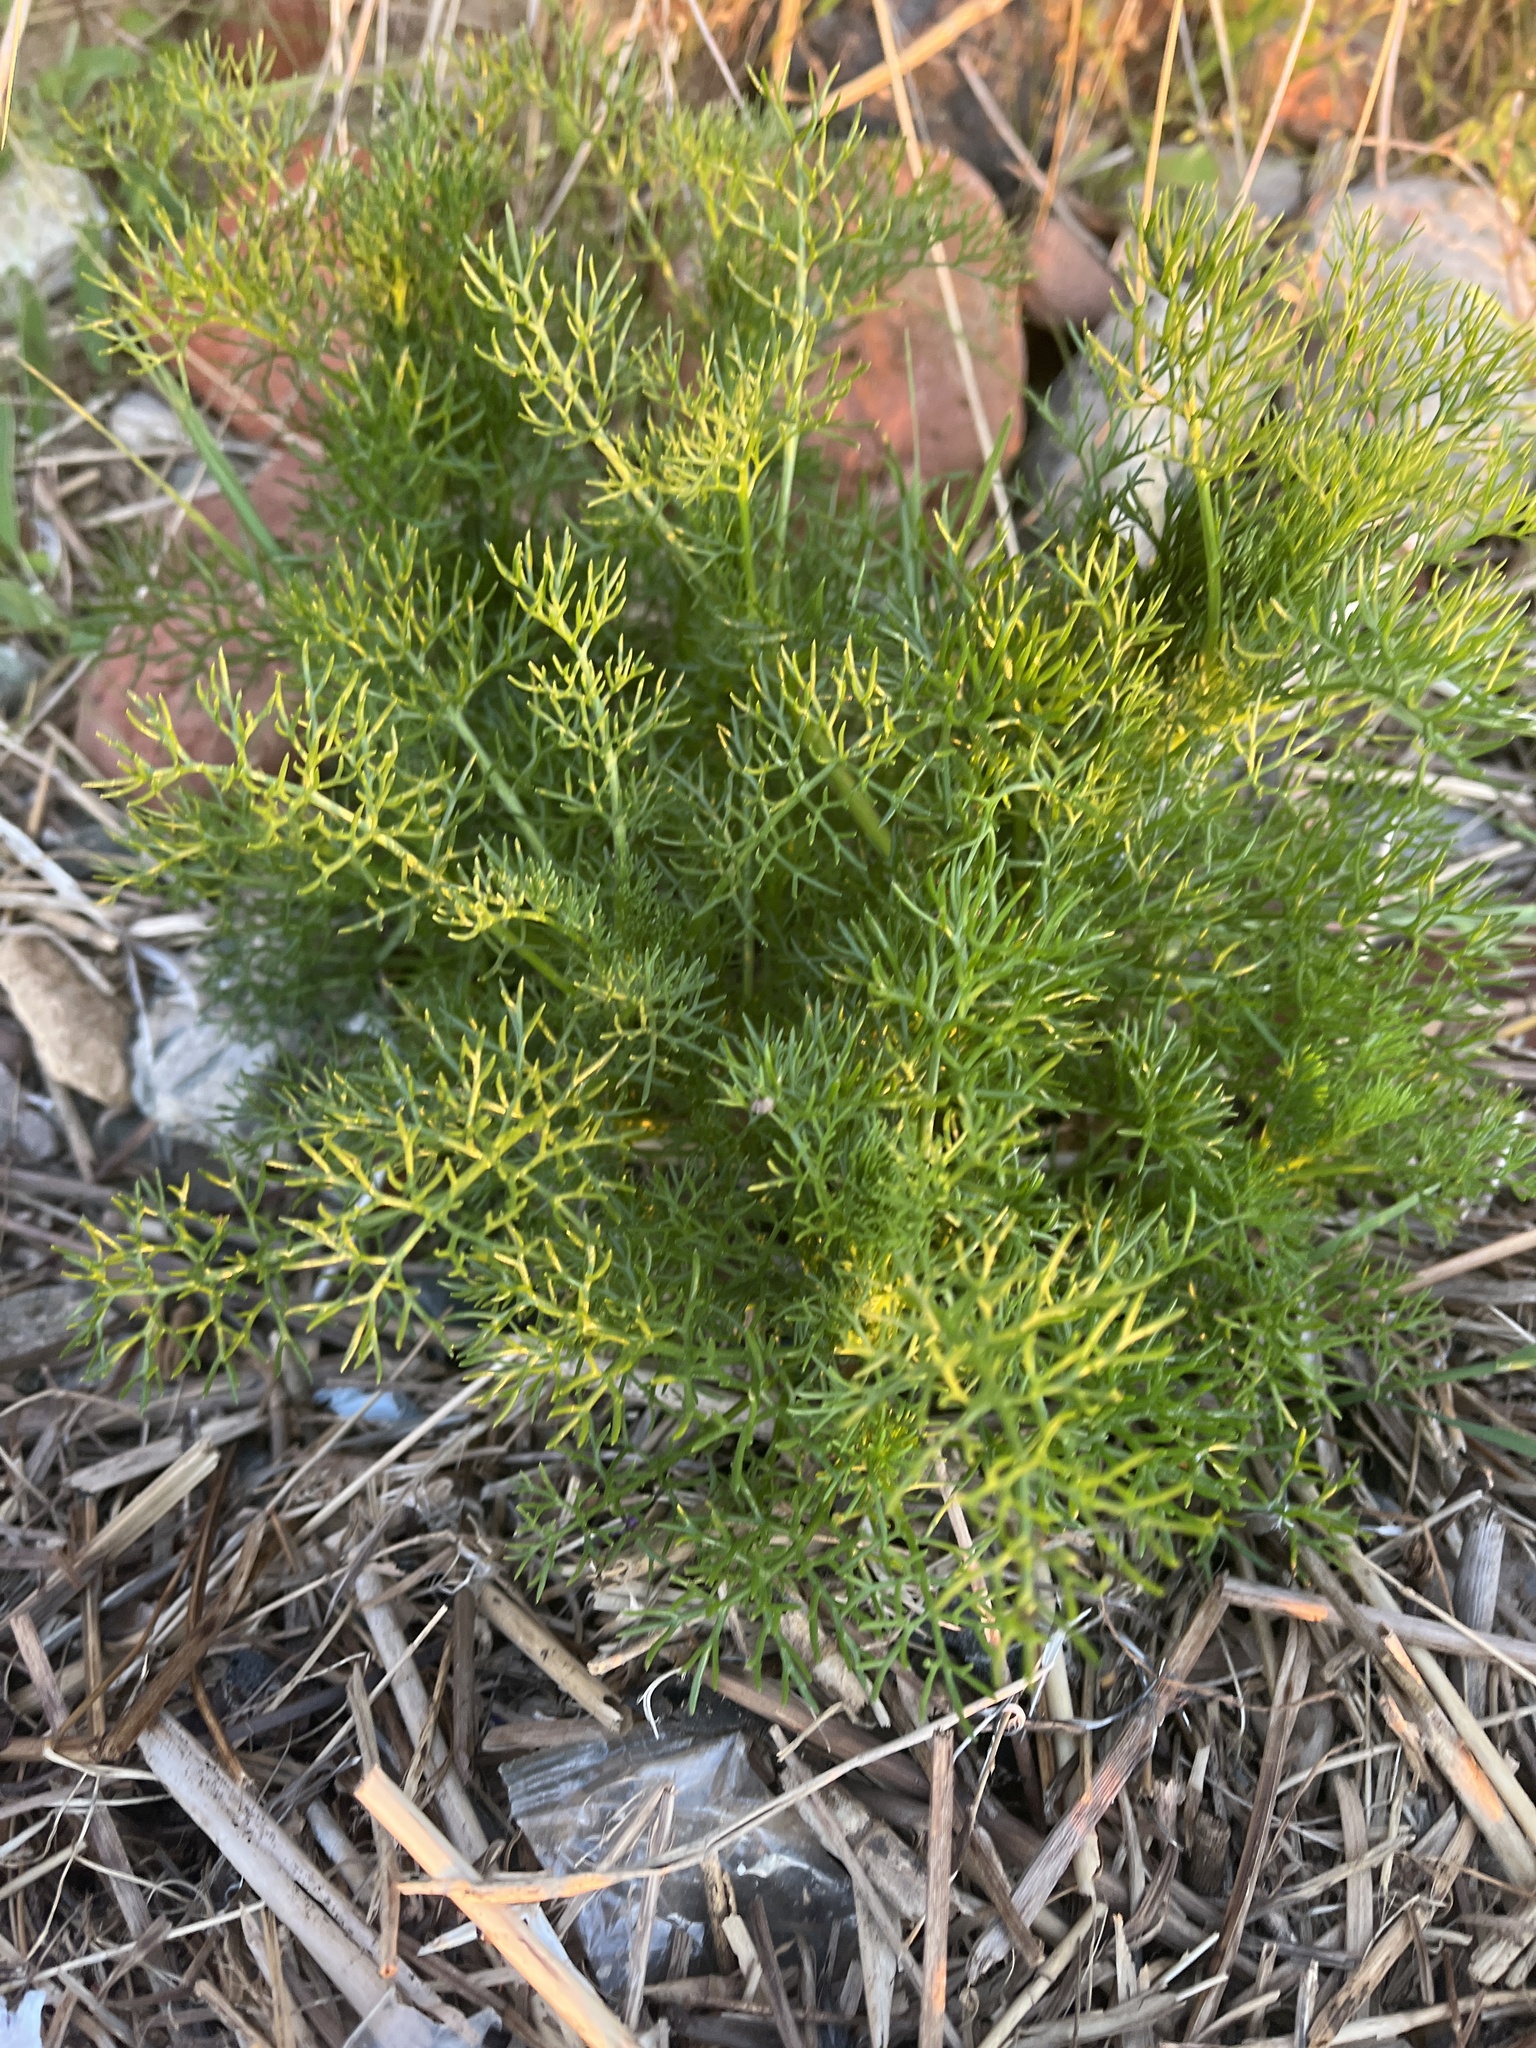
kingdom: Plantae
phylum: Tracheophyta
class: Magnoliopsida
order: Asterales
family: Asteraceae
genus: Tripleurospermum
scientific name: Tripleurospermum maritimum
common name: Sea mayweed
